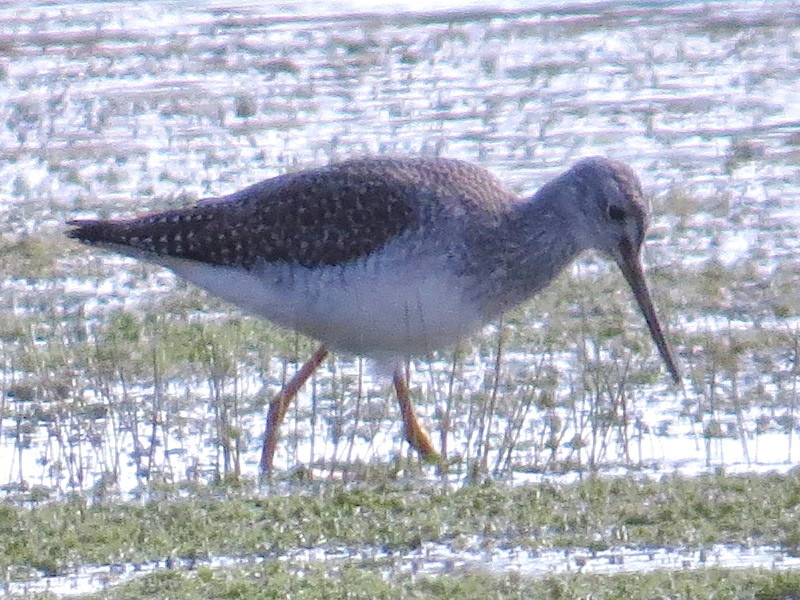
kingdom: Animalia
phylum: Chordata
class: Aves
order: Charadriiformes
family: Scolopacidae
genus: Tringa
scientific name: Tringa melanoleuca
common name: Greater yellowlegs
